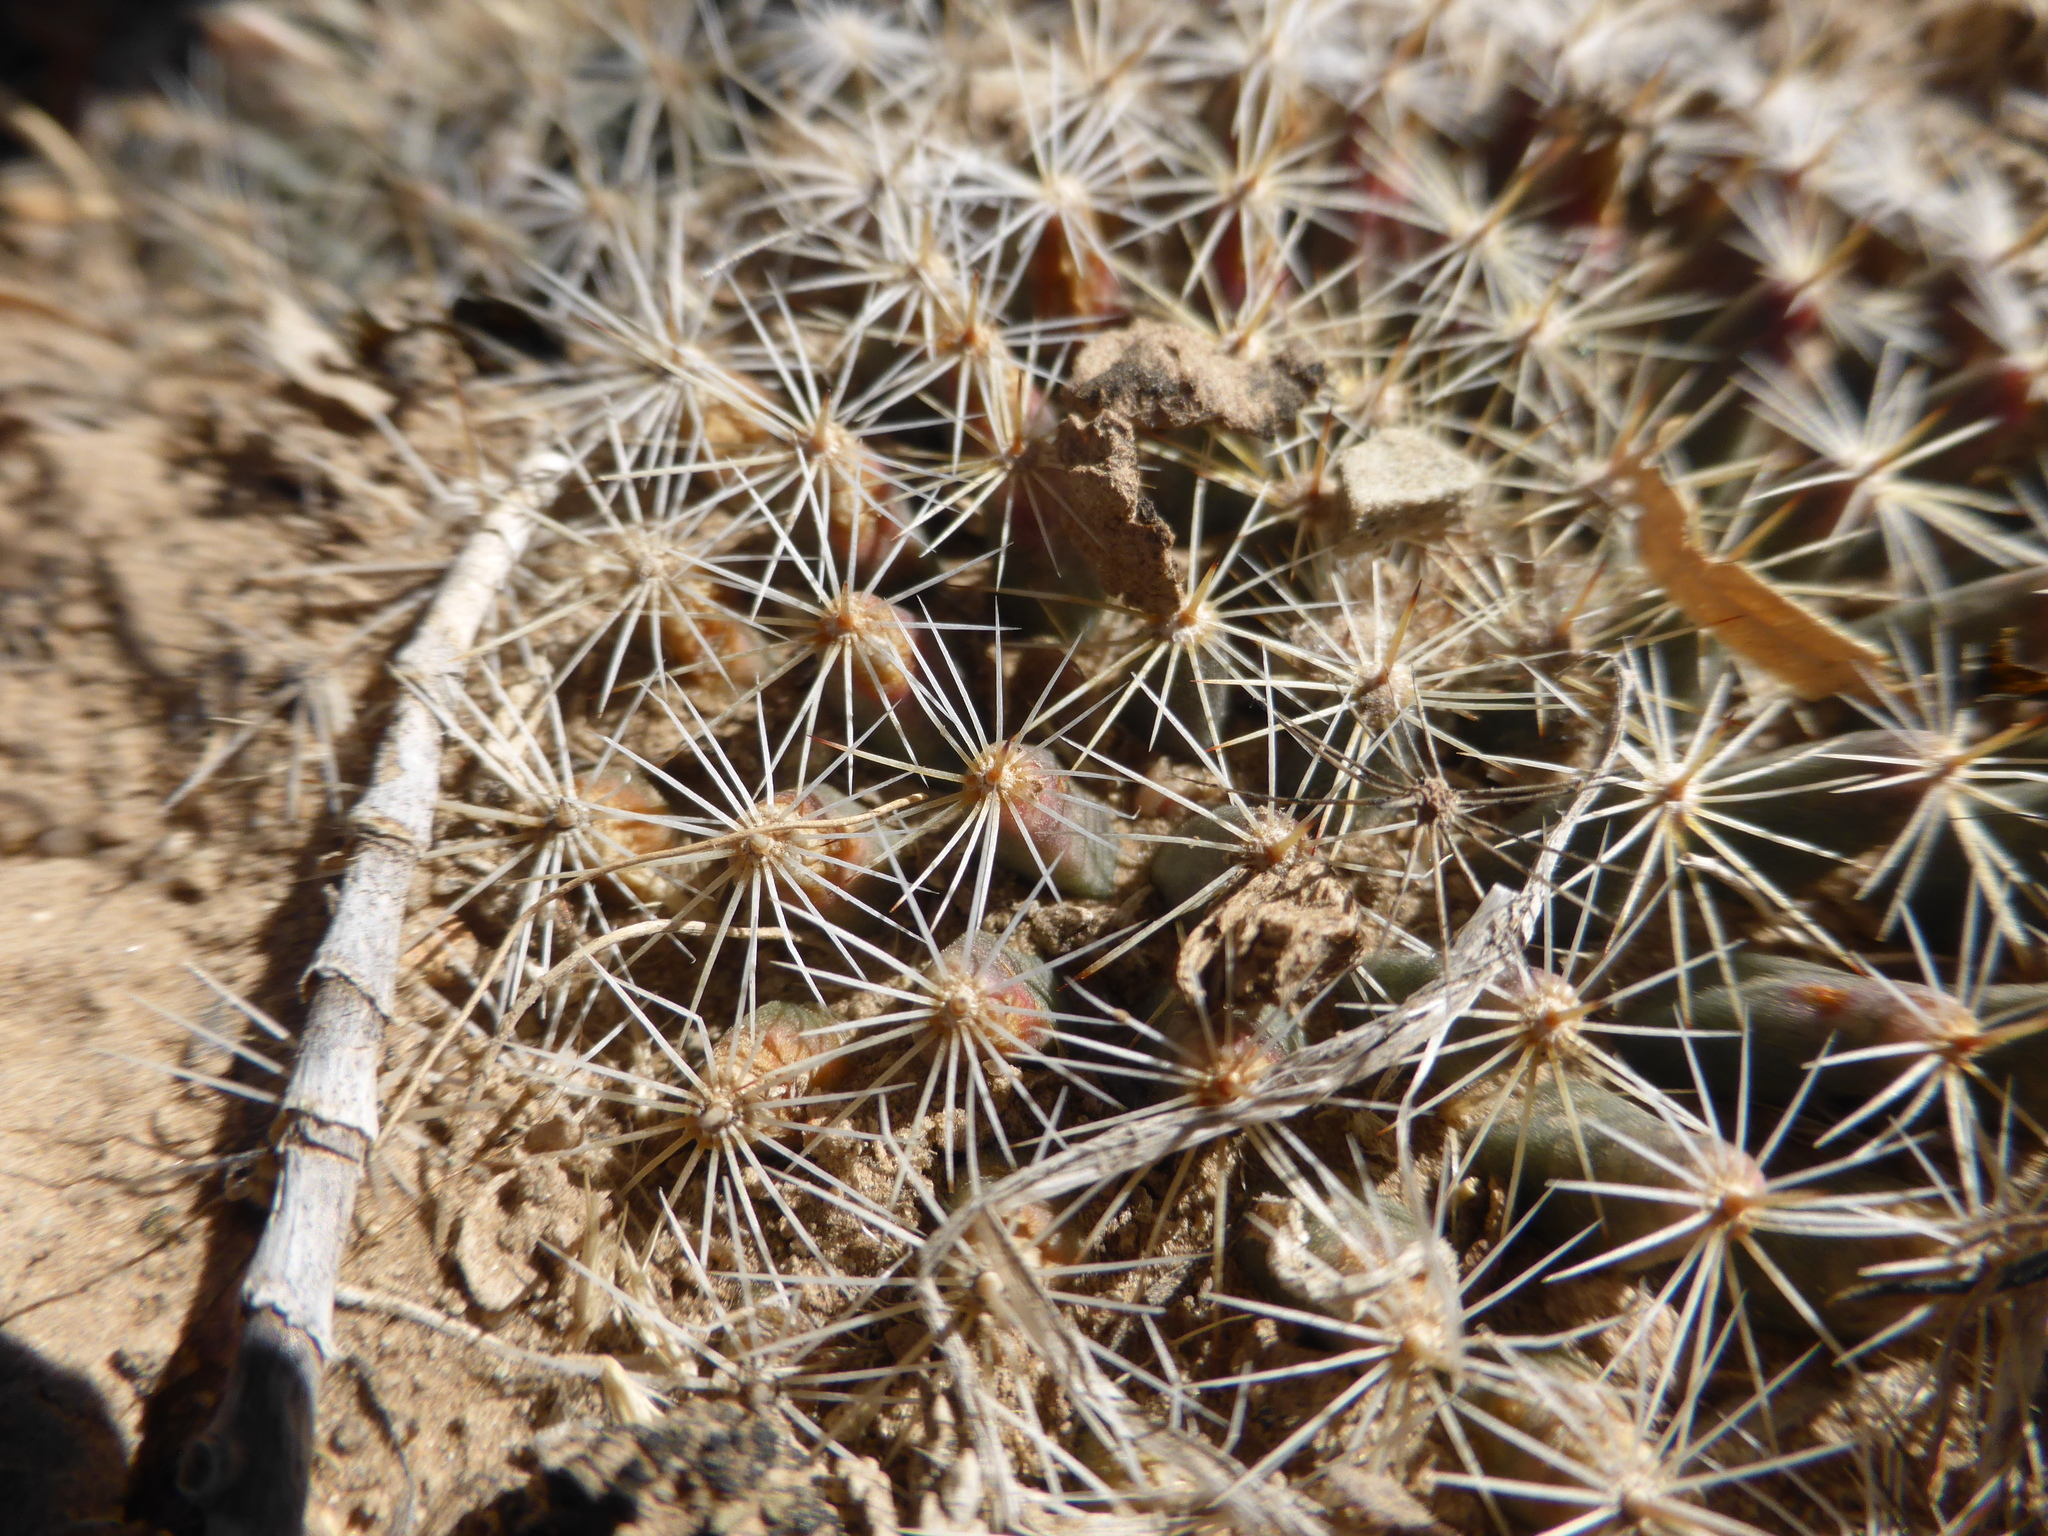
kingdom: Plantae
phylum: Tracheophyta
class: Magnoliopsida
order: Caryophyllales
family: Cactaceae
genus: Mammillaria
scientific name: Mammillaria heyderi
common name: Little nipple cactus
